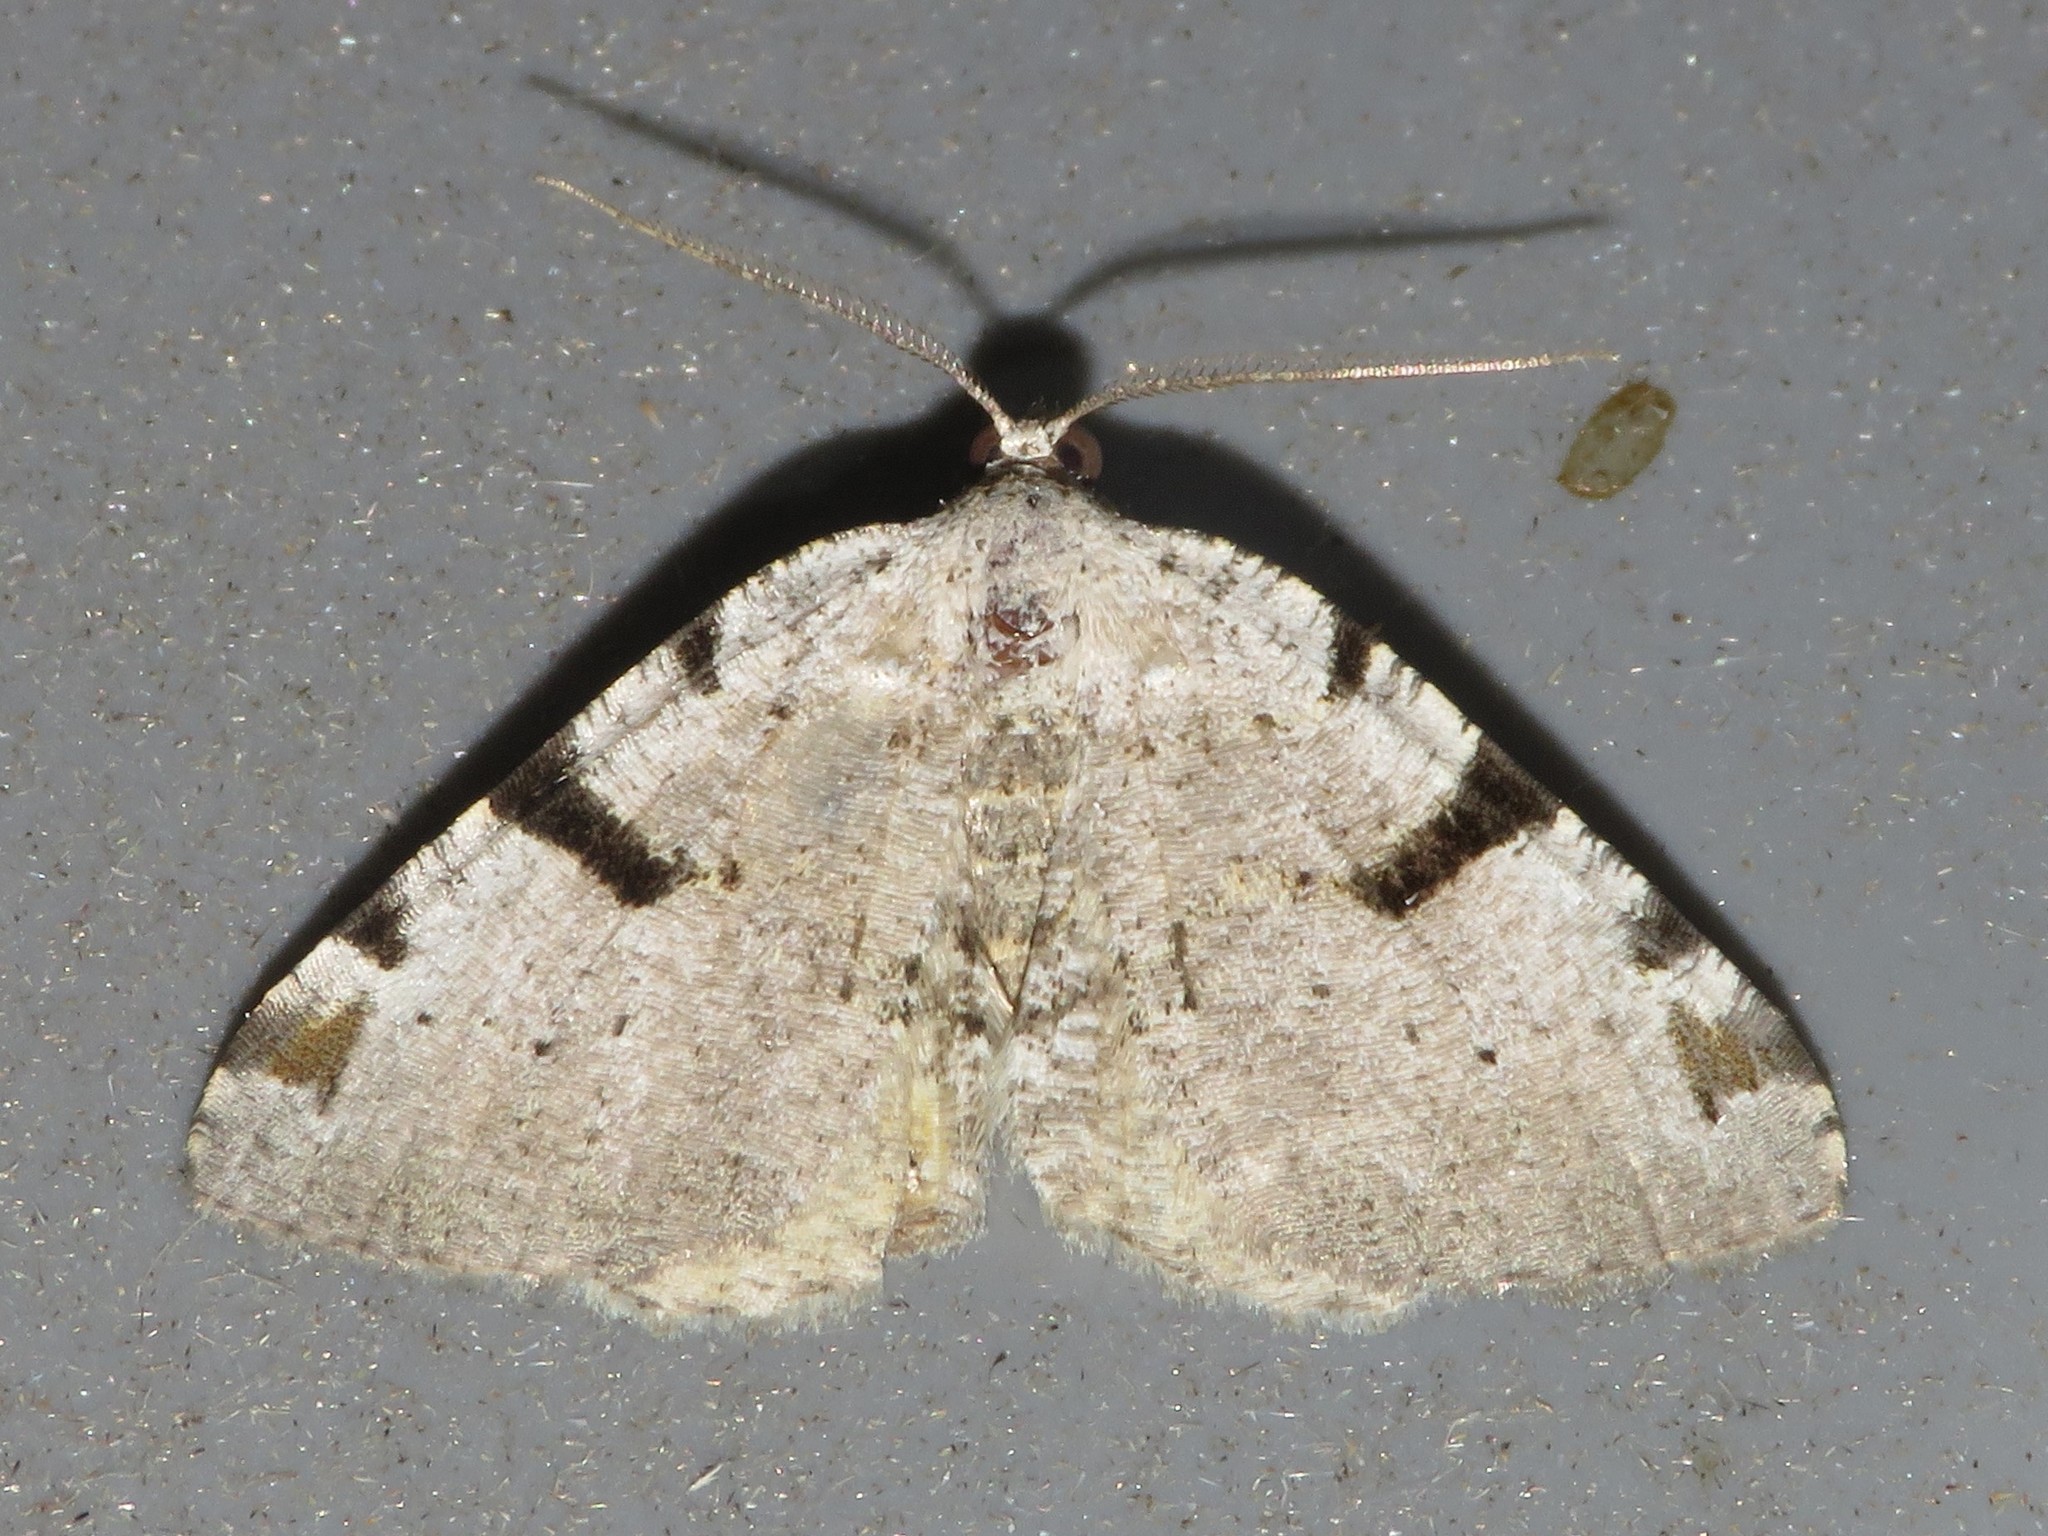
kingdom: Animalia
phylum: Arthropoda
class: Insecta
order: Lepidoptera
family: Geometridae
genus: Macaria
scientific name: Macaria subcessaria
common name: Barred angle
